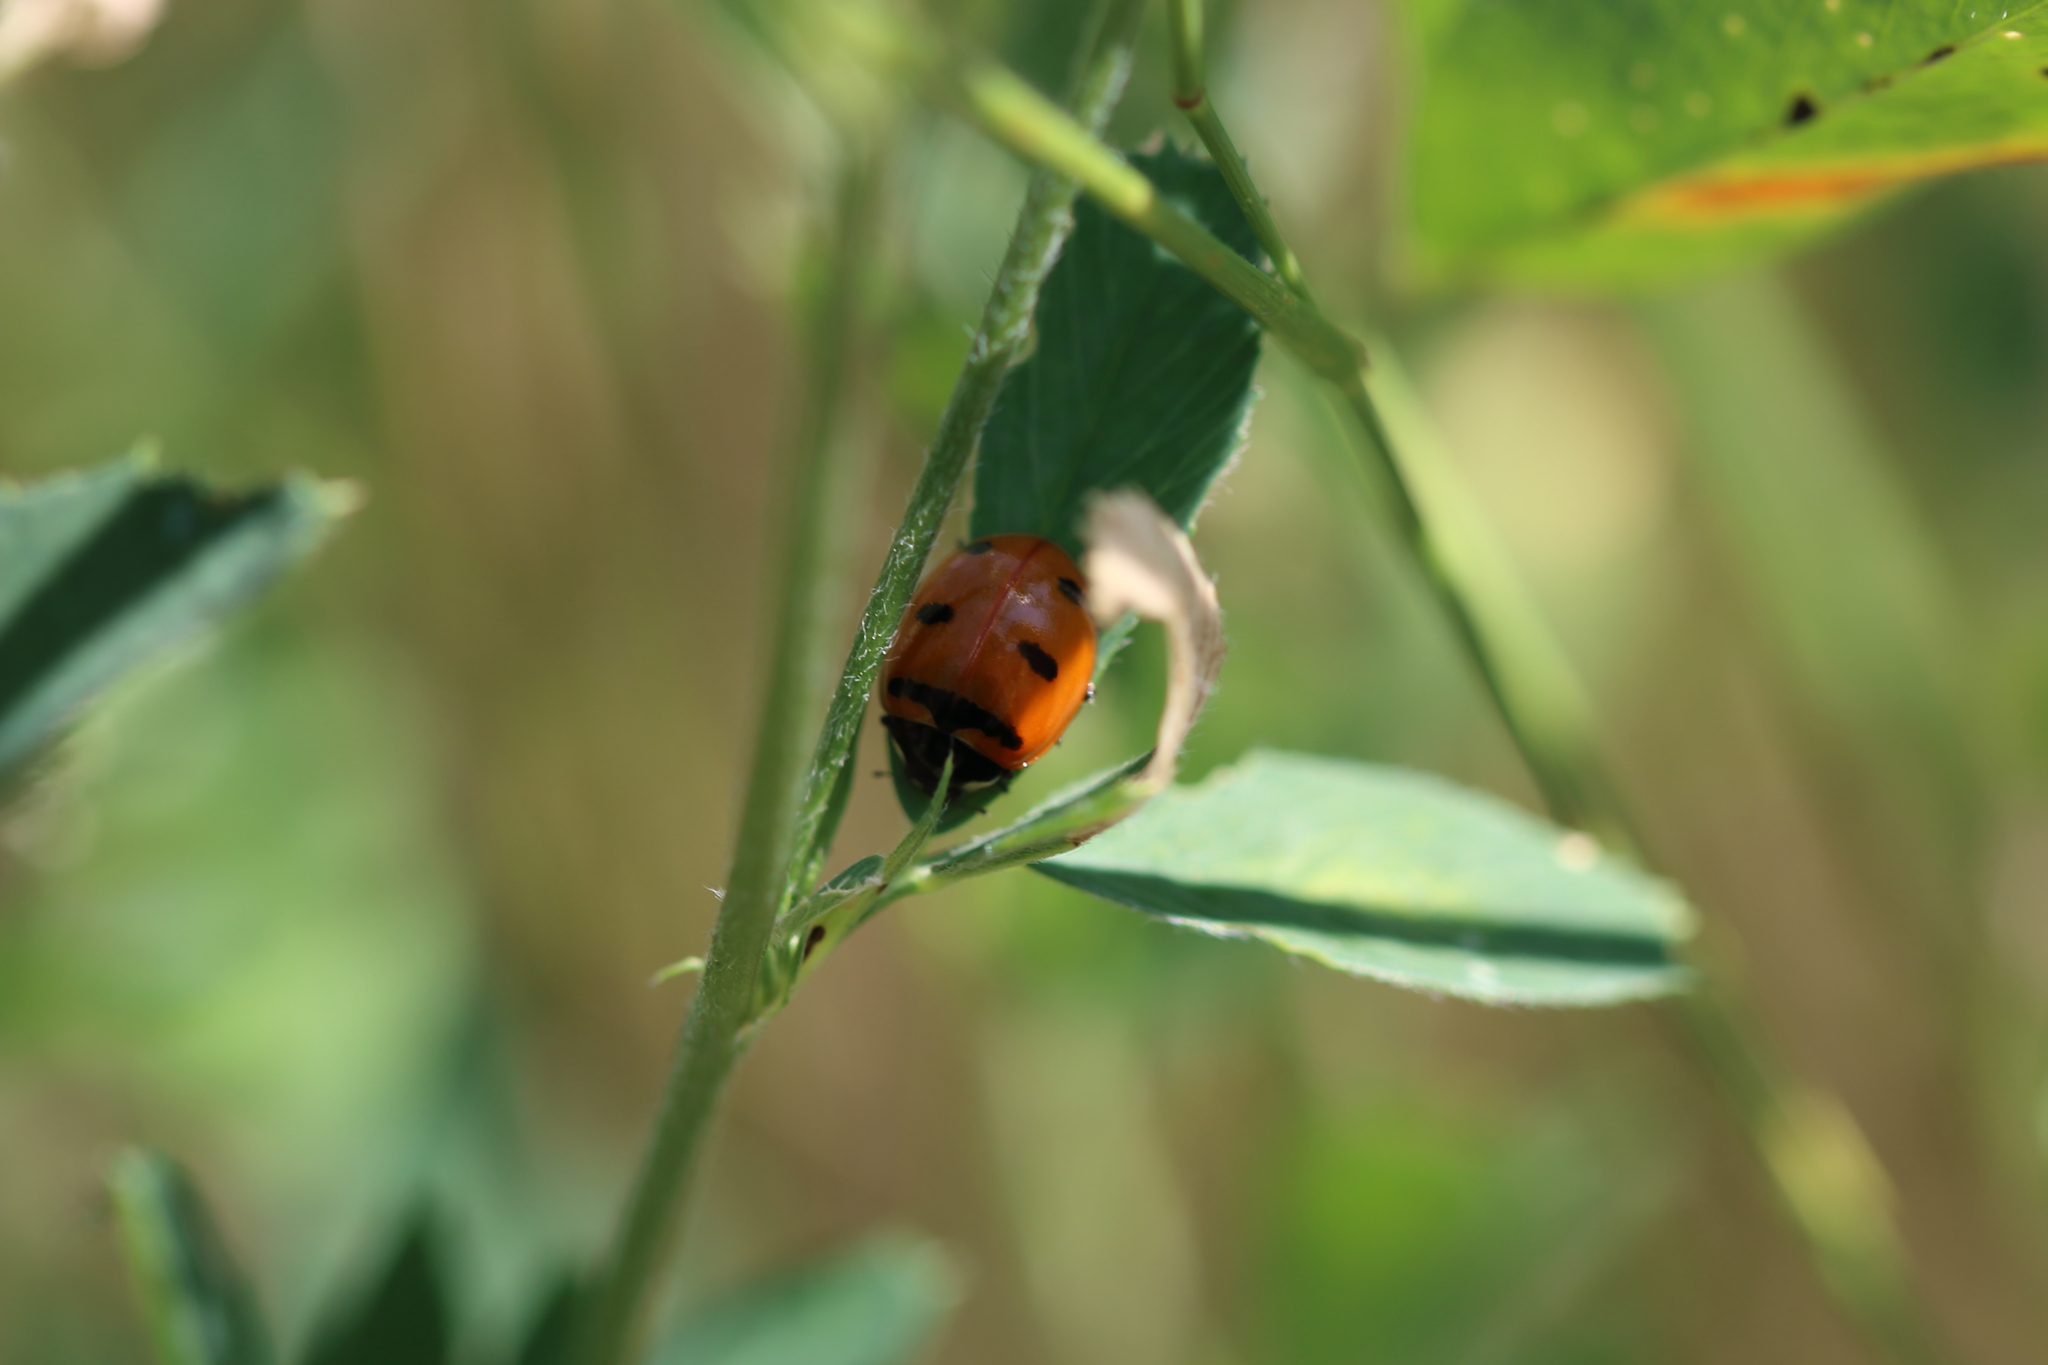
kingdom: Animalia
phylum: Arthropoda
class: Insecta
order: Coleoptera
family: Coccinellidae
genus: Coccinella
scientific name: Coccinella transversoguttata
